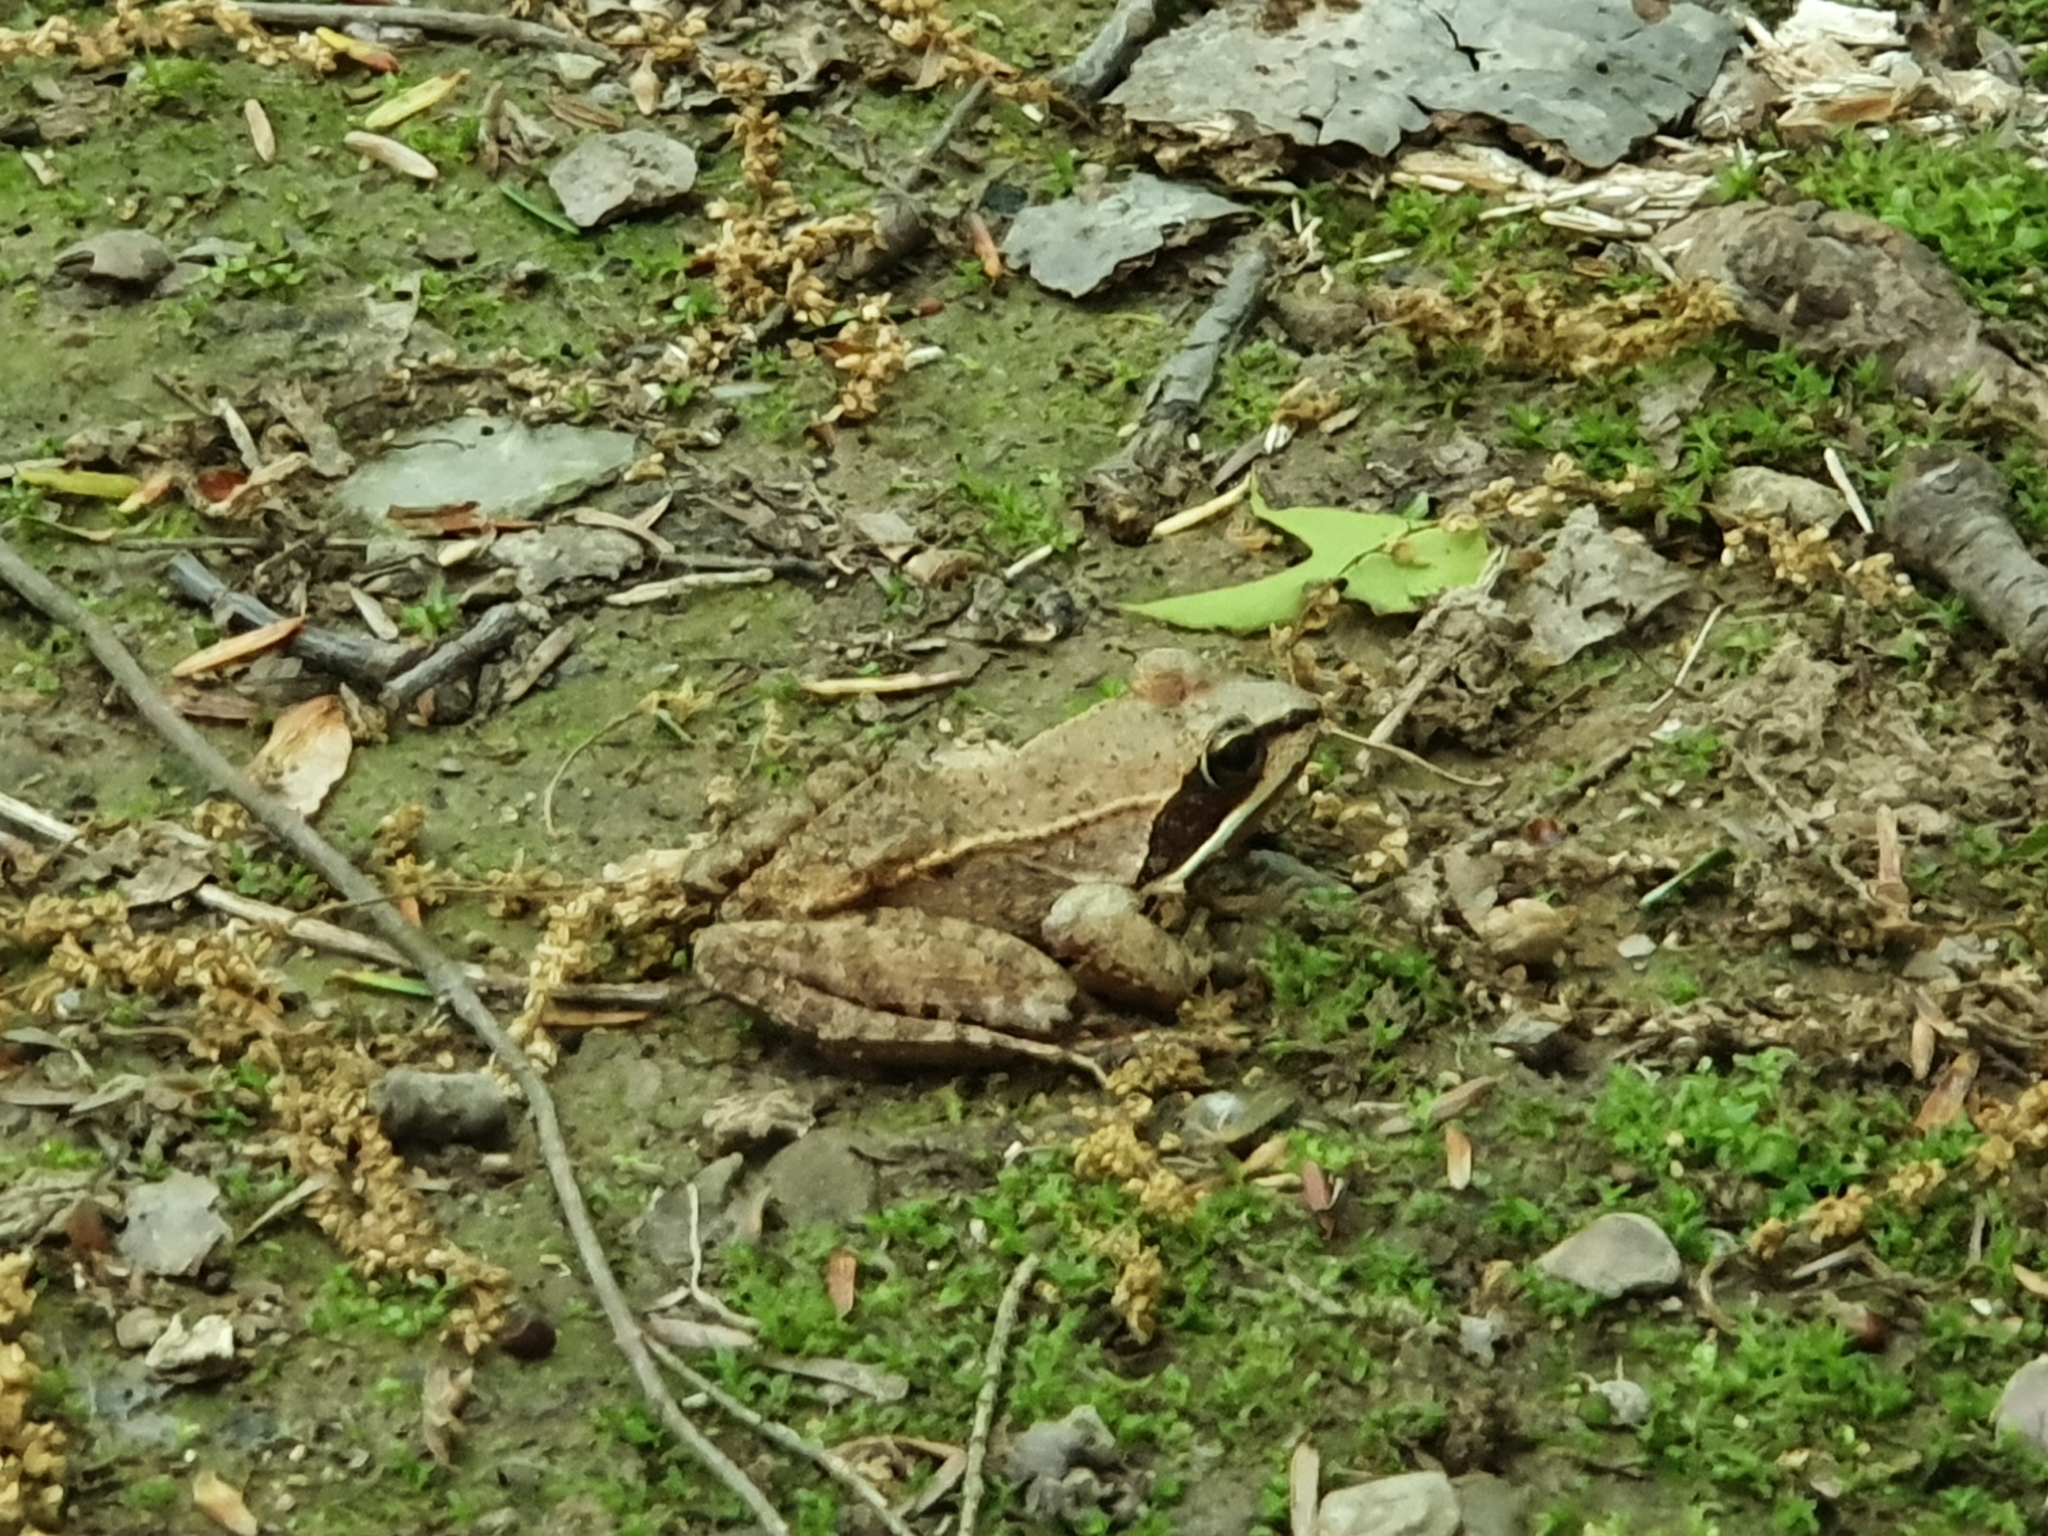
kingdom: Animalia
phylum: Chordata
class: Amphibia
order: Anura
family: Ranidae
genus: Lithobates
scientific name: Lithobates sylvaticus
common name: Wood frog
